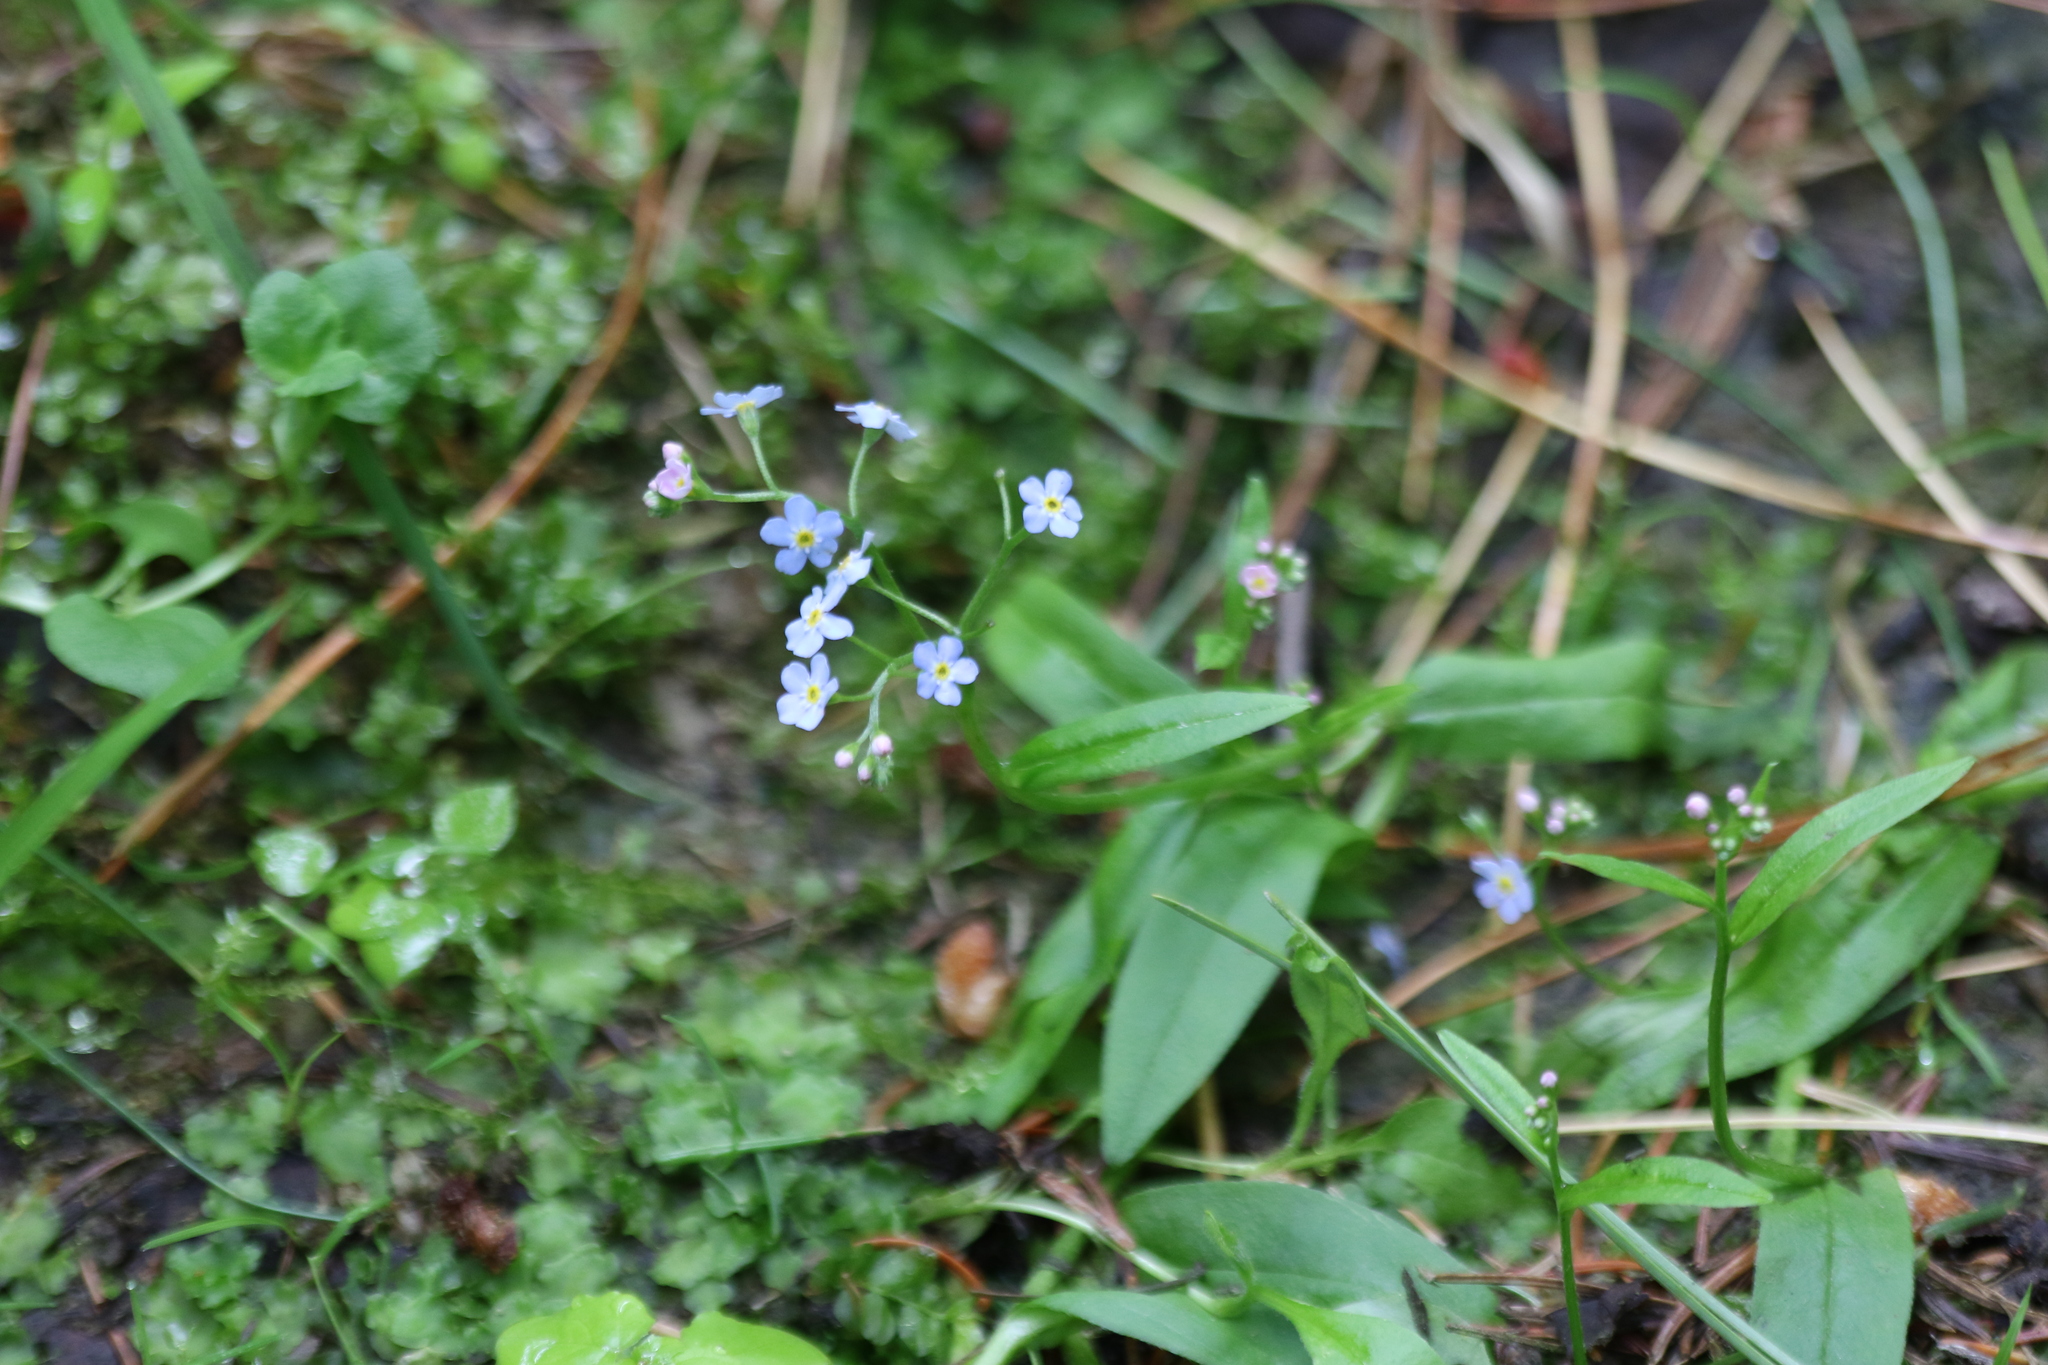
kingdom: Plantae
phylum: Tracheophyta
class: Magnoliopsida
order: Boraginales
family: Boraginaceae
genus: Myosotis
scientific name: Myosotis scorpioides
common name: Water forget-me-not
